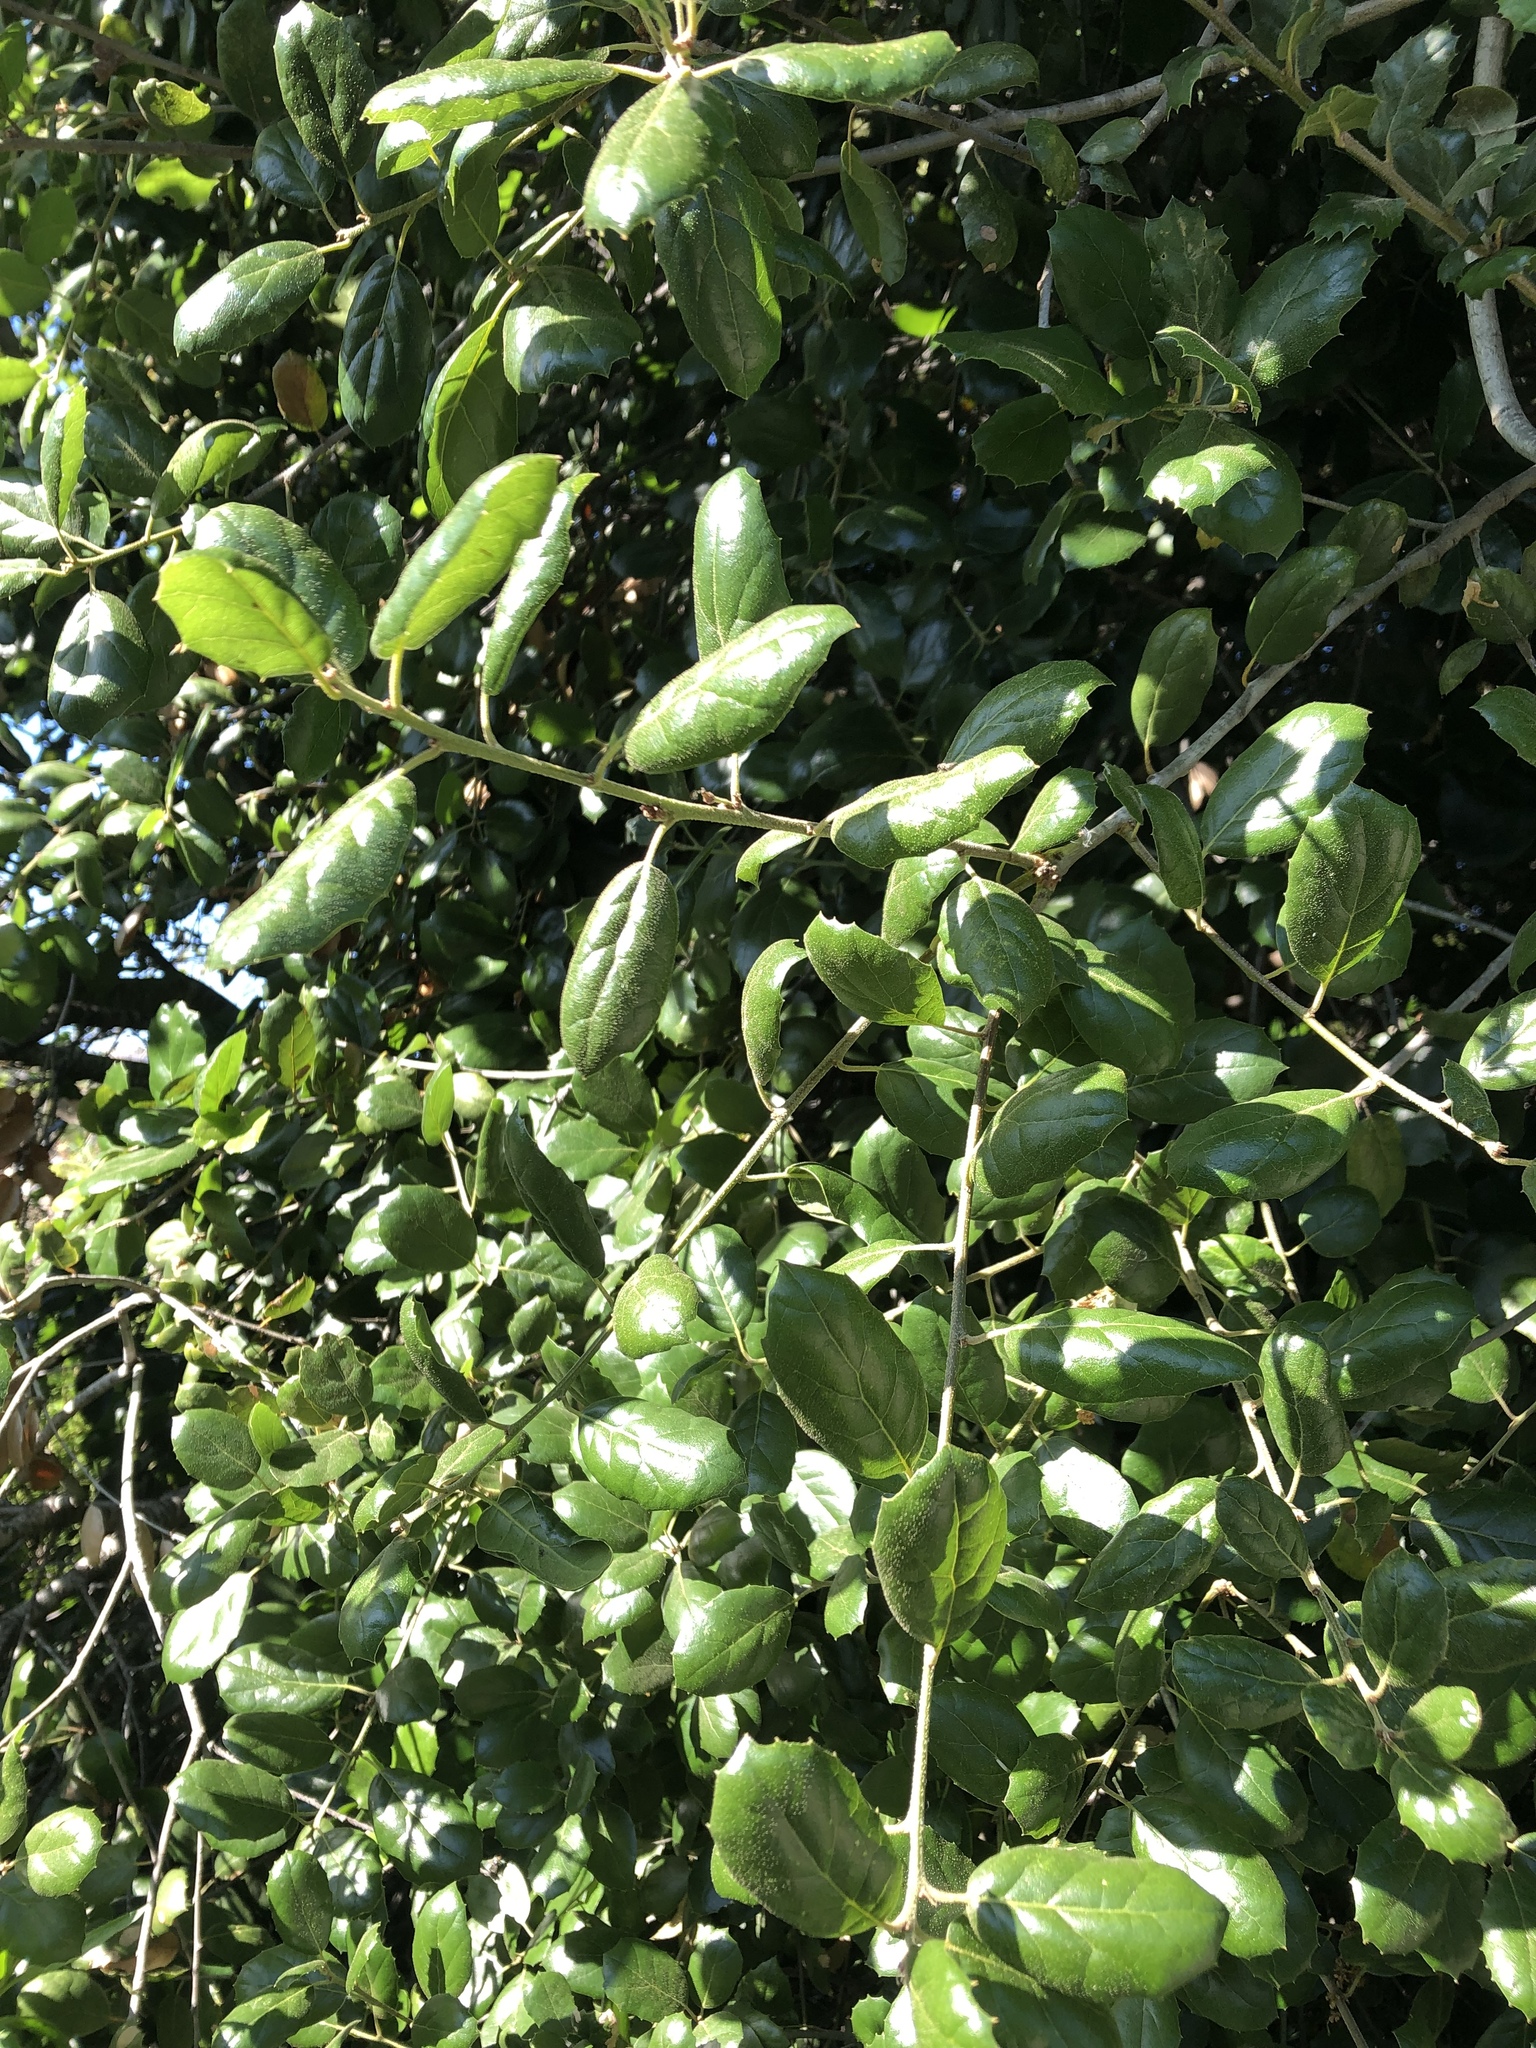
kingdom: Plantae
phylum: Tracheophyta
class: Magnoliopsida
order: Fagales
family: Fagaceae
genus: Quercus
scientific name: Quercus agrifolia
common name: California live oak
